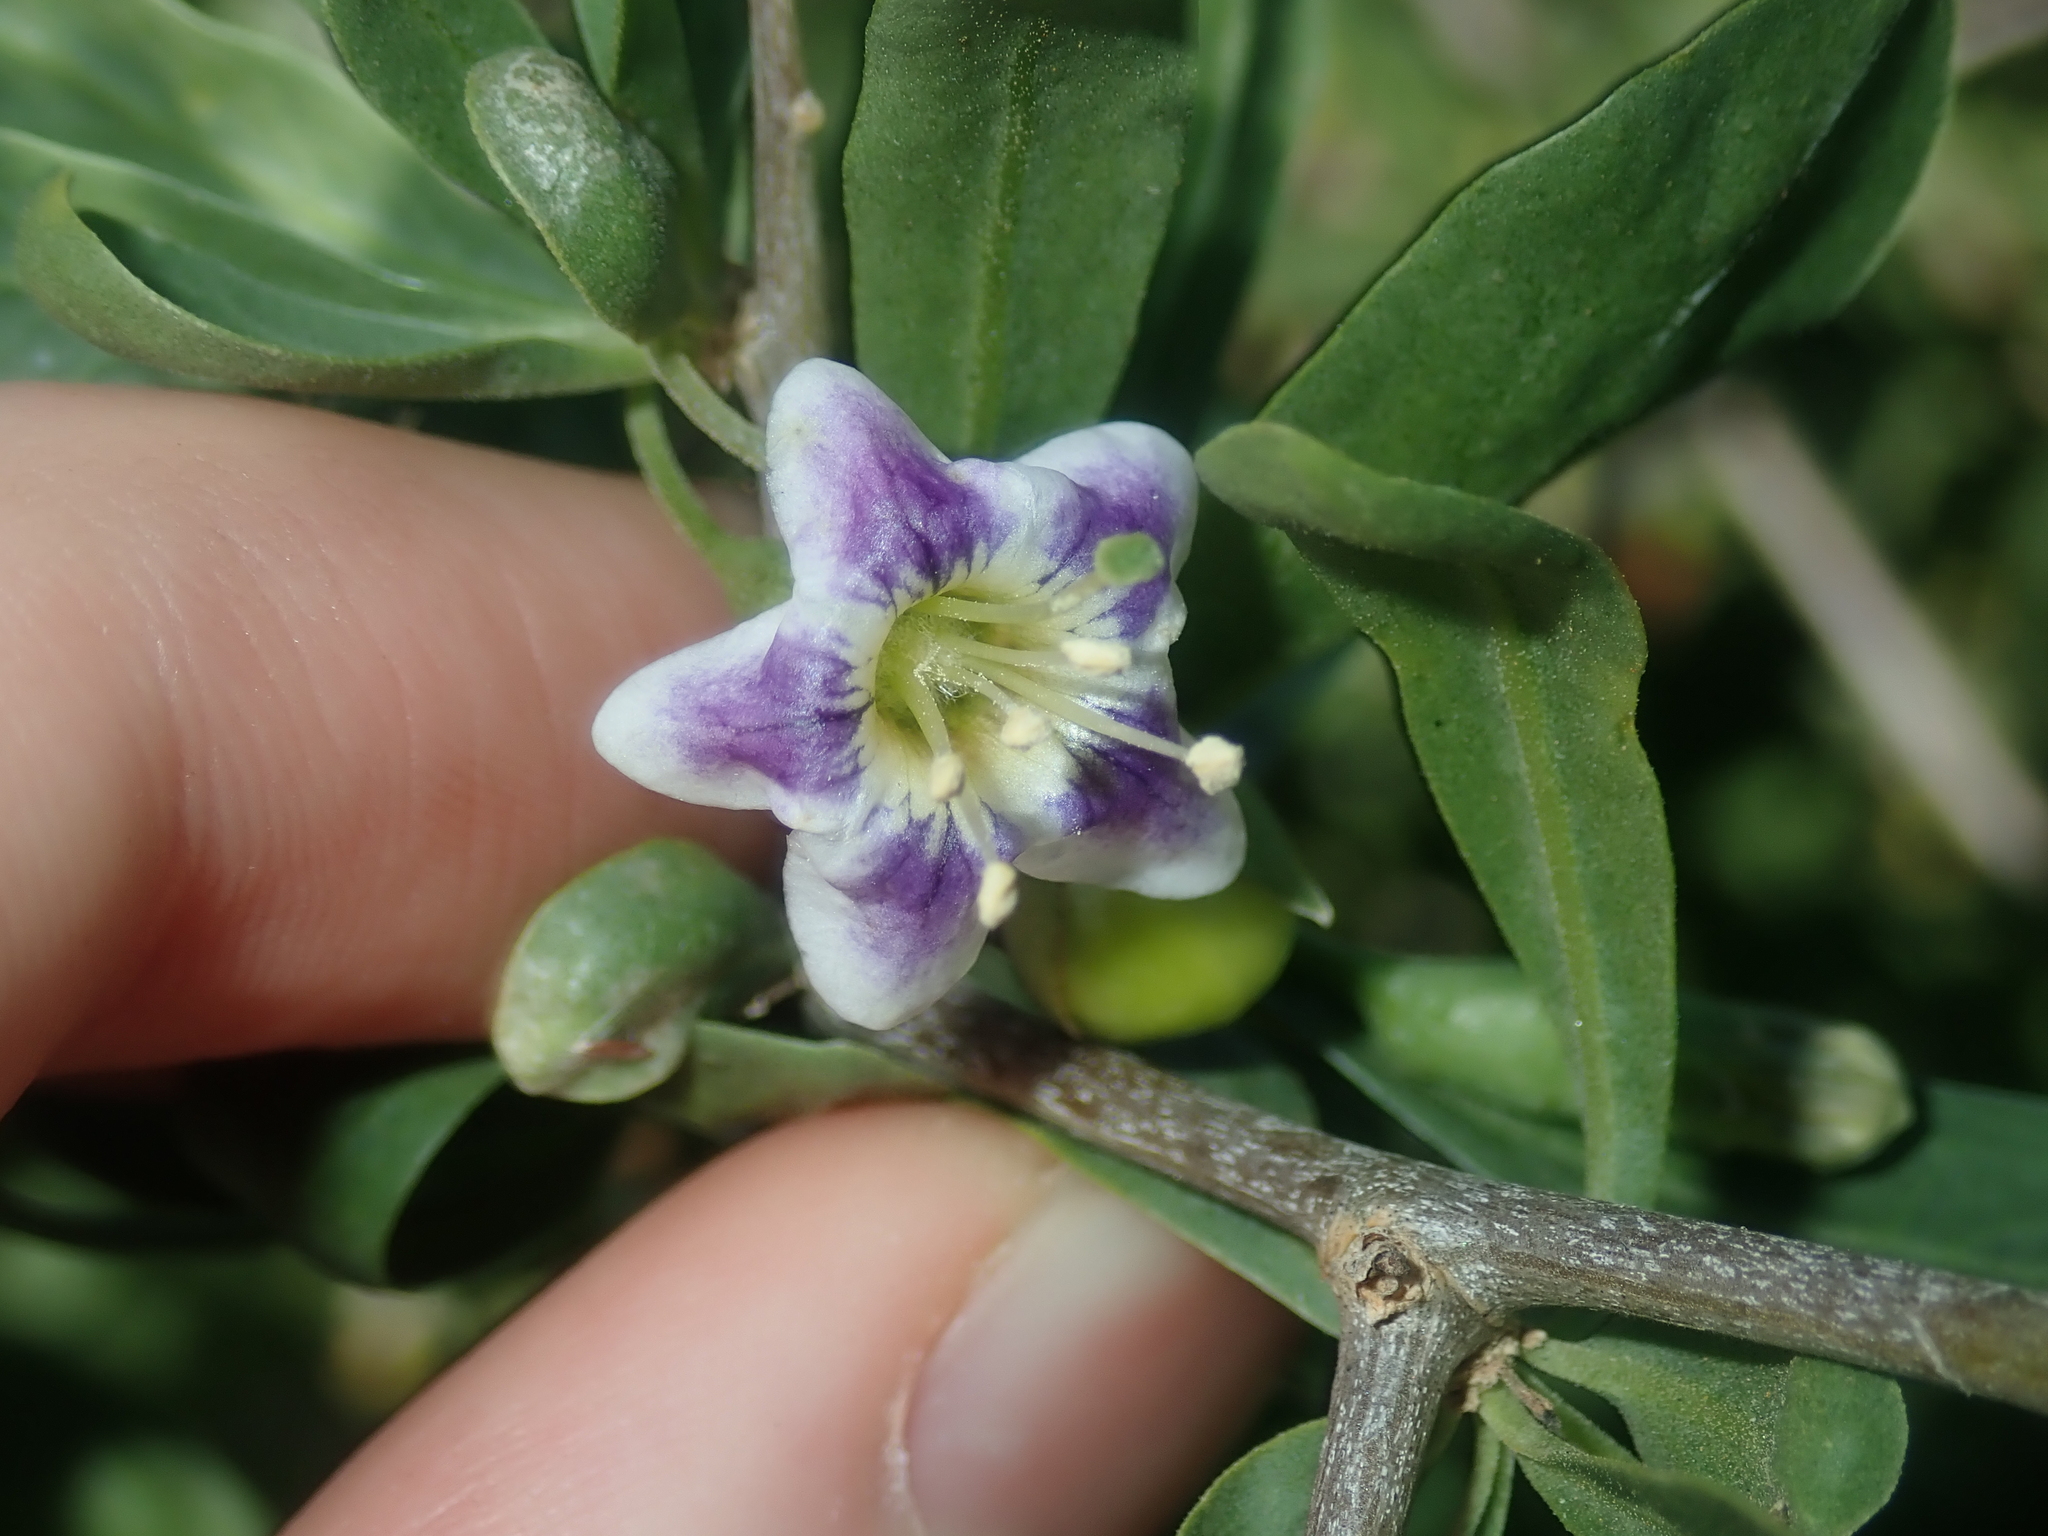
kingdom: Plantae
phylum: Tracheophyta
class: Magnoliopsida
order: Solanales
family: Solanaceae
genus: Lycium
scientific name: Lycium ferocissimum
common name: African boxthorn
